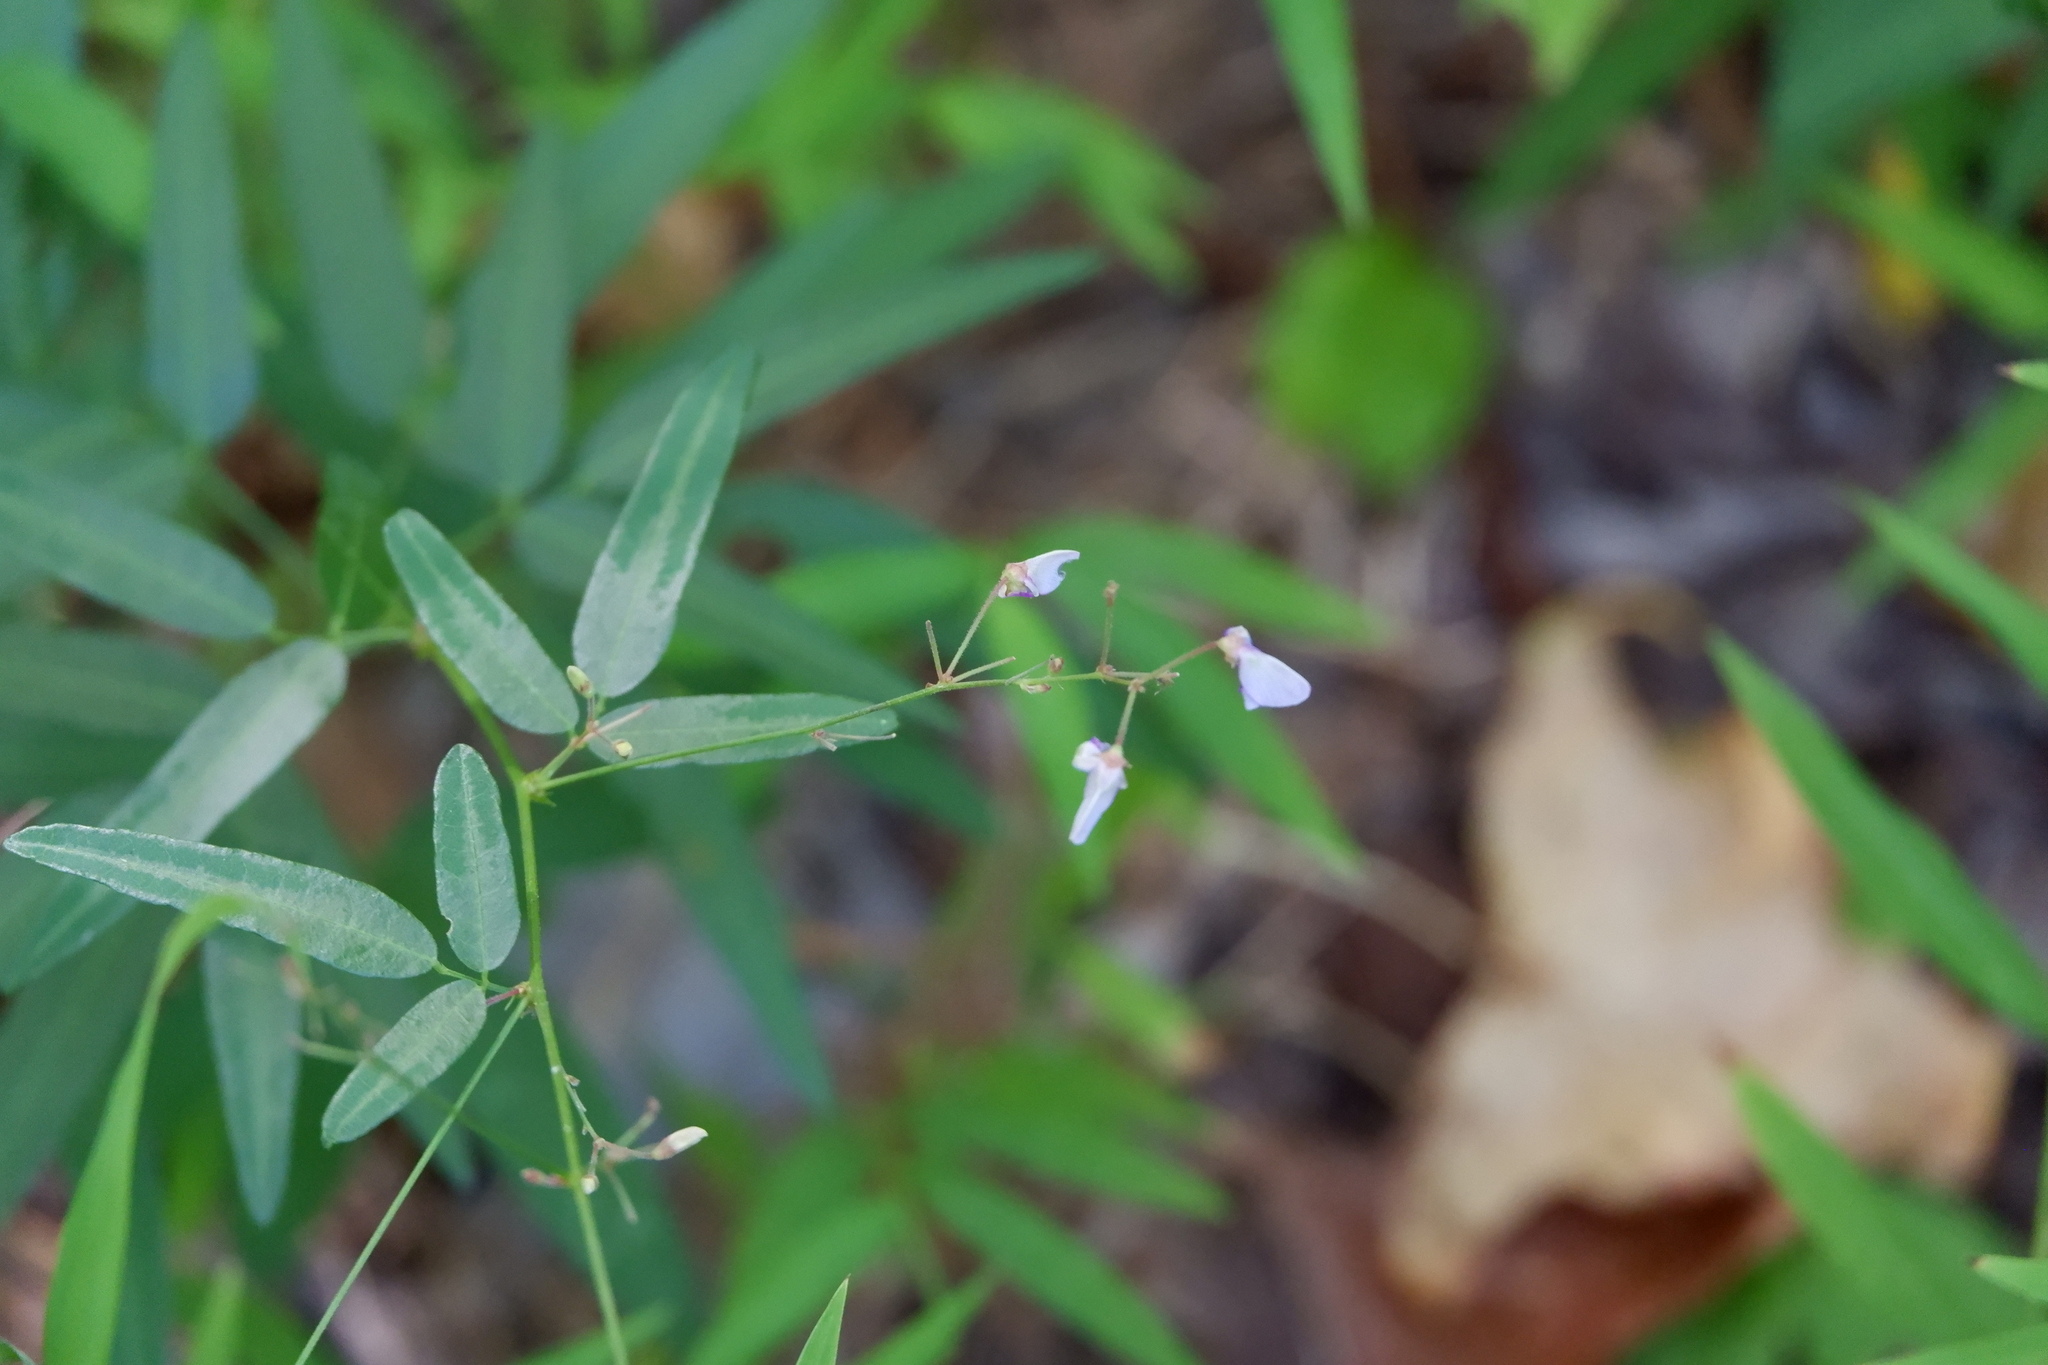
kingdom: Plantae
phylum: Tracheophyta
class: Magnoliopsida
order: Fabales
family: Fabaceae
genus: Desmodium
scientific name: Desmodium paniculatum
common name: Panicled tick-clover
